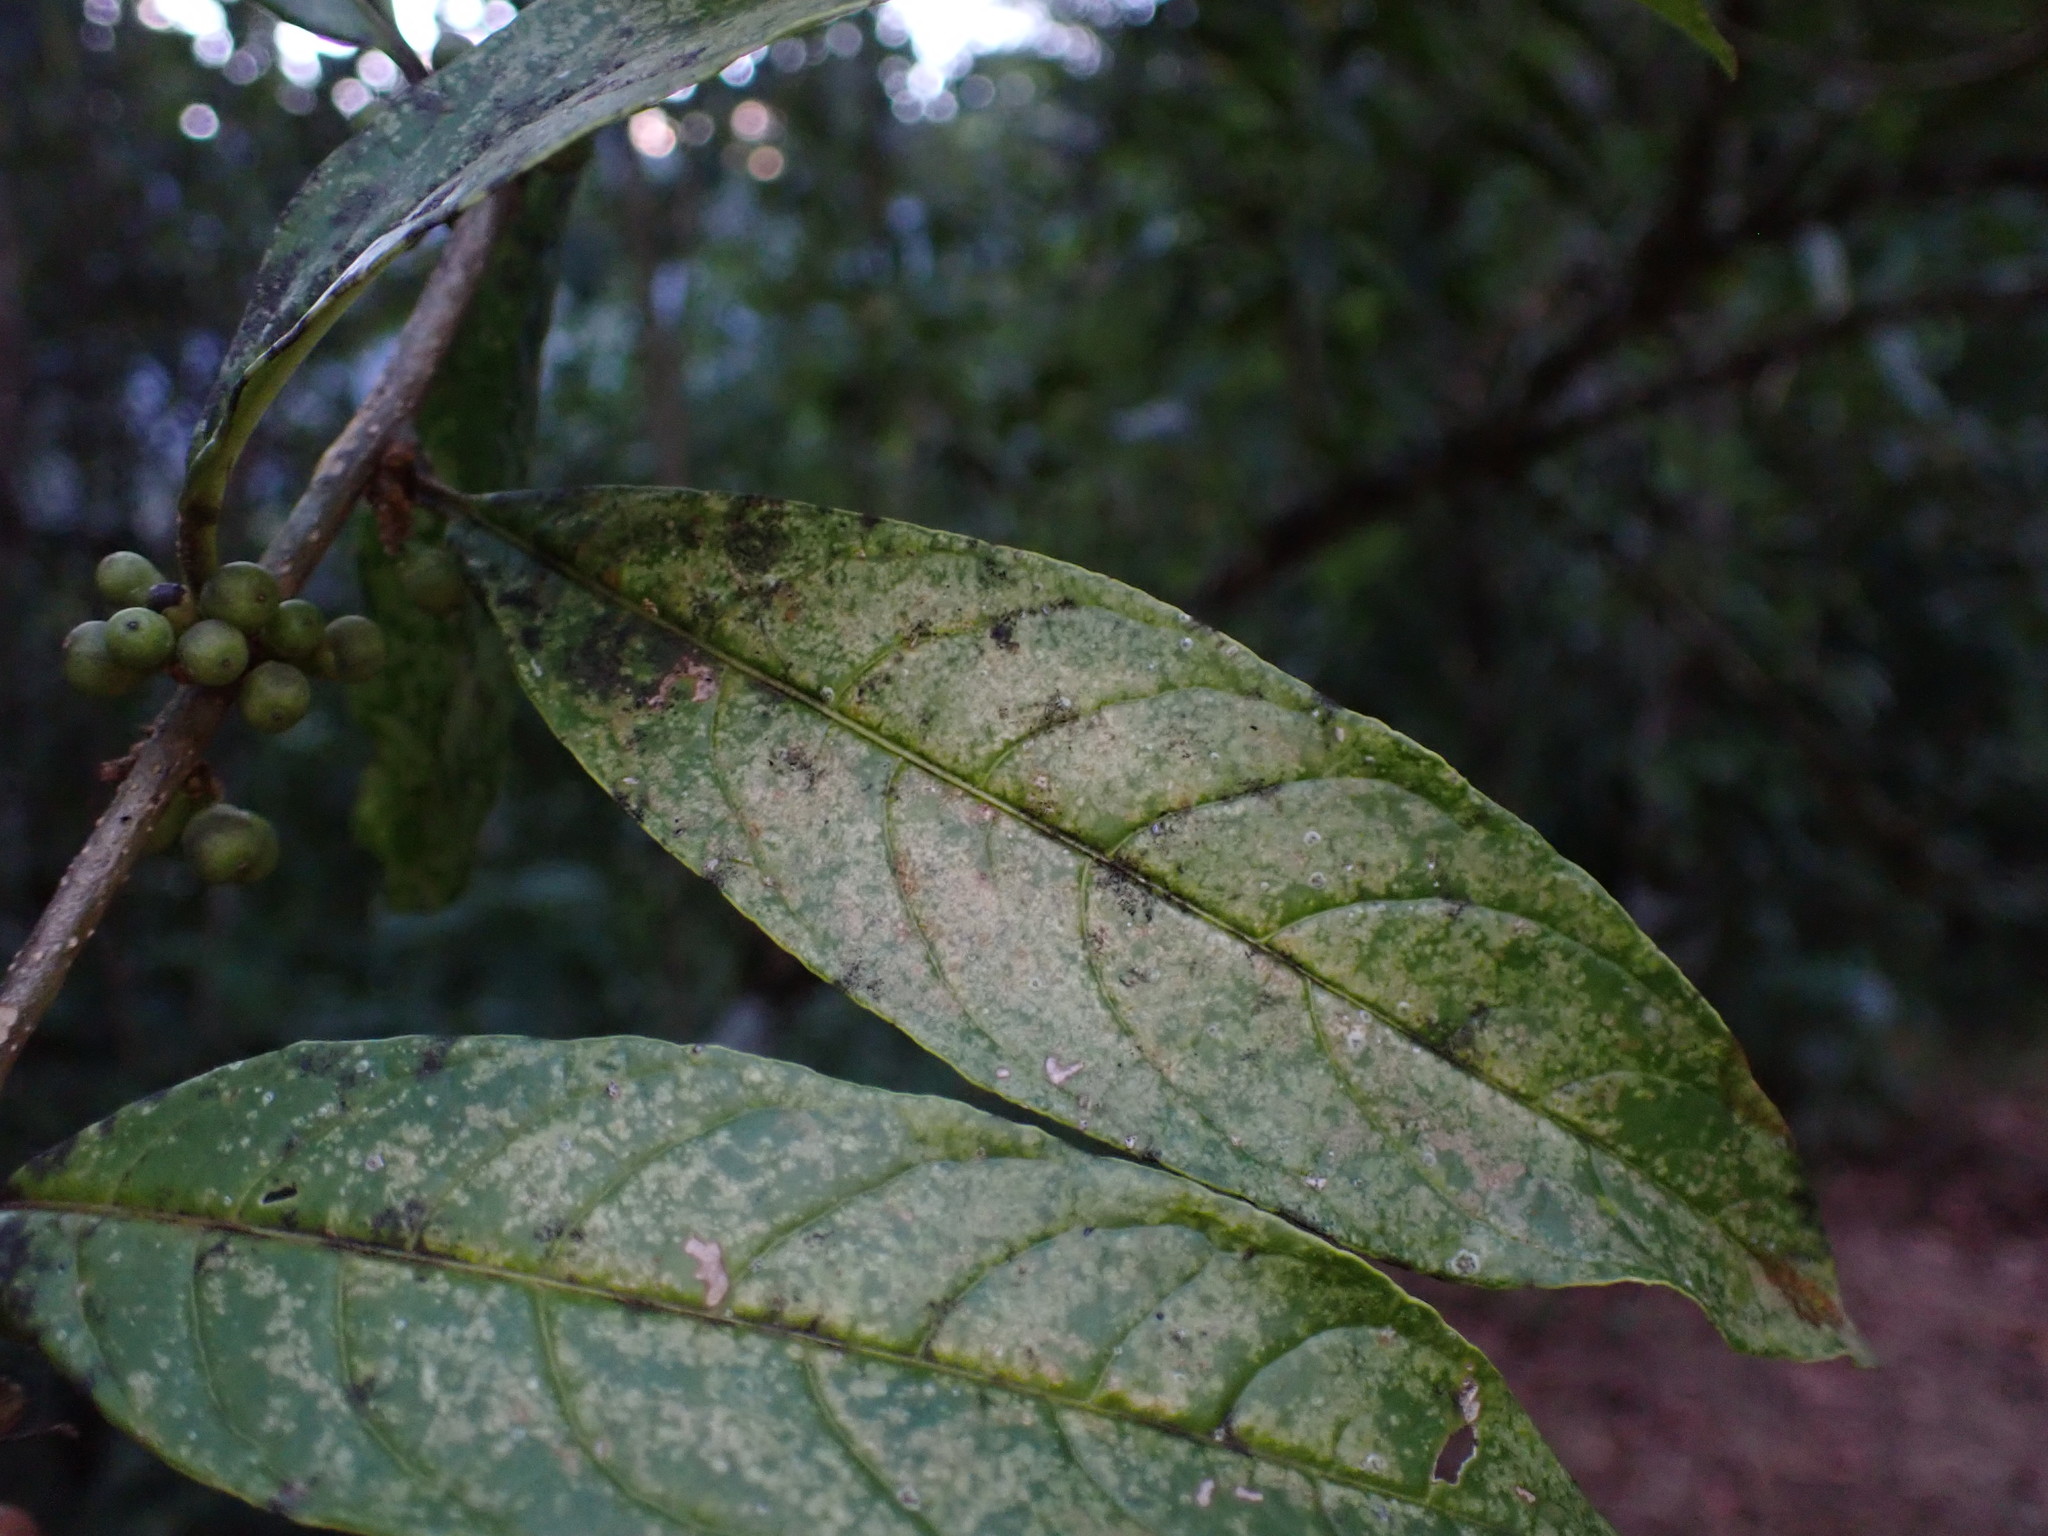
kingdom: Plantae
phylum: Tracheophyta
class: Magnoliopsida
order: Solanales
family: Solanaceae
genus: Cestrum
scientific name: Cestrum conglomeratum
